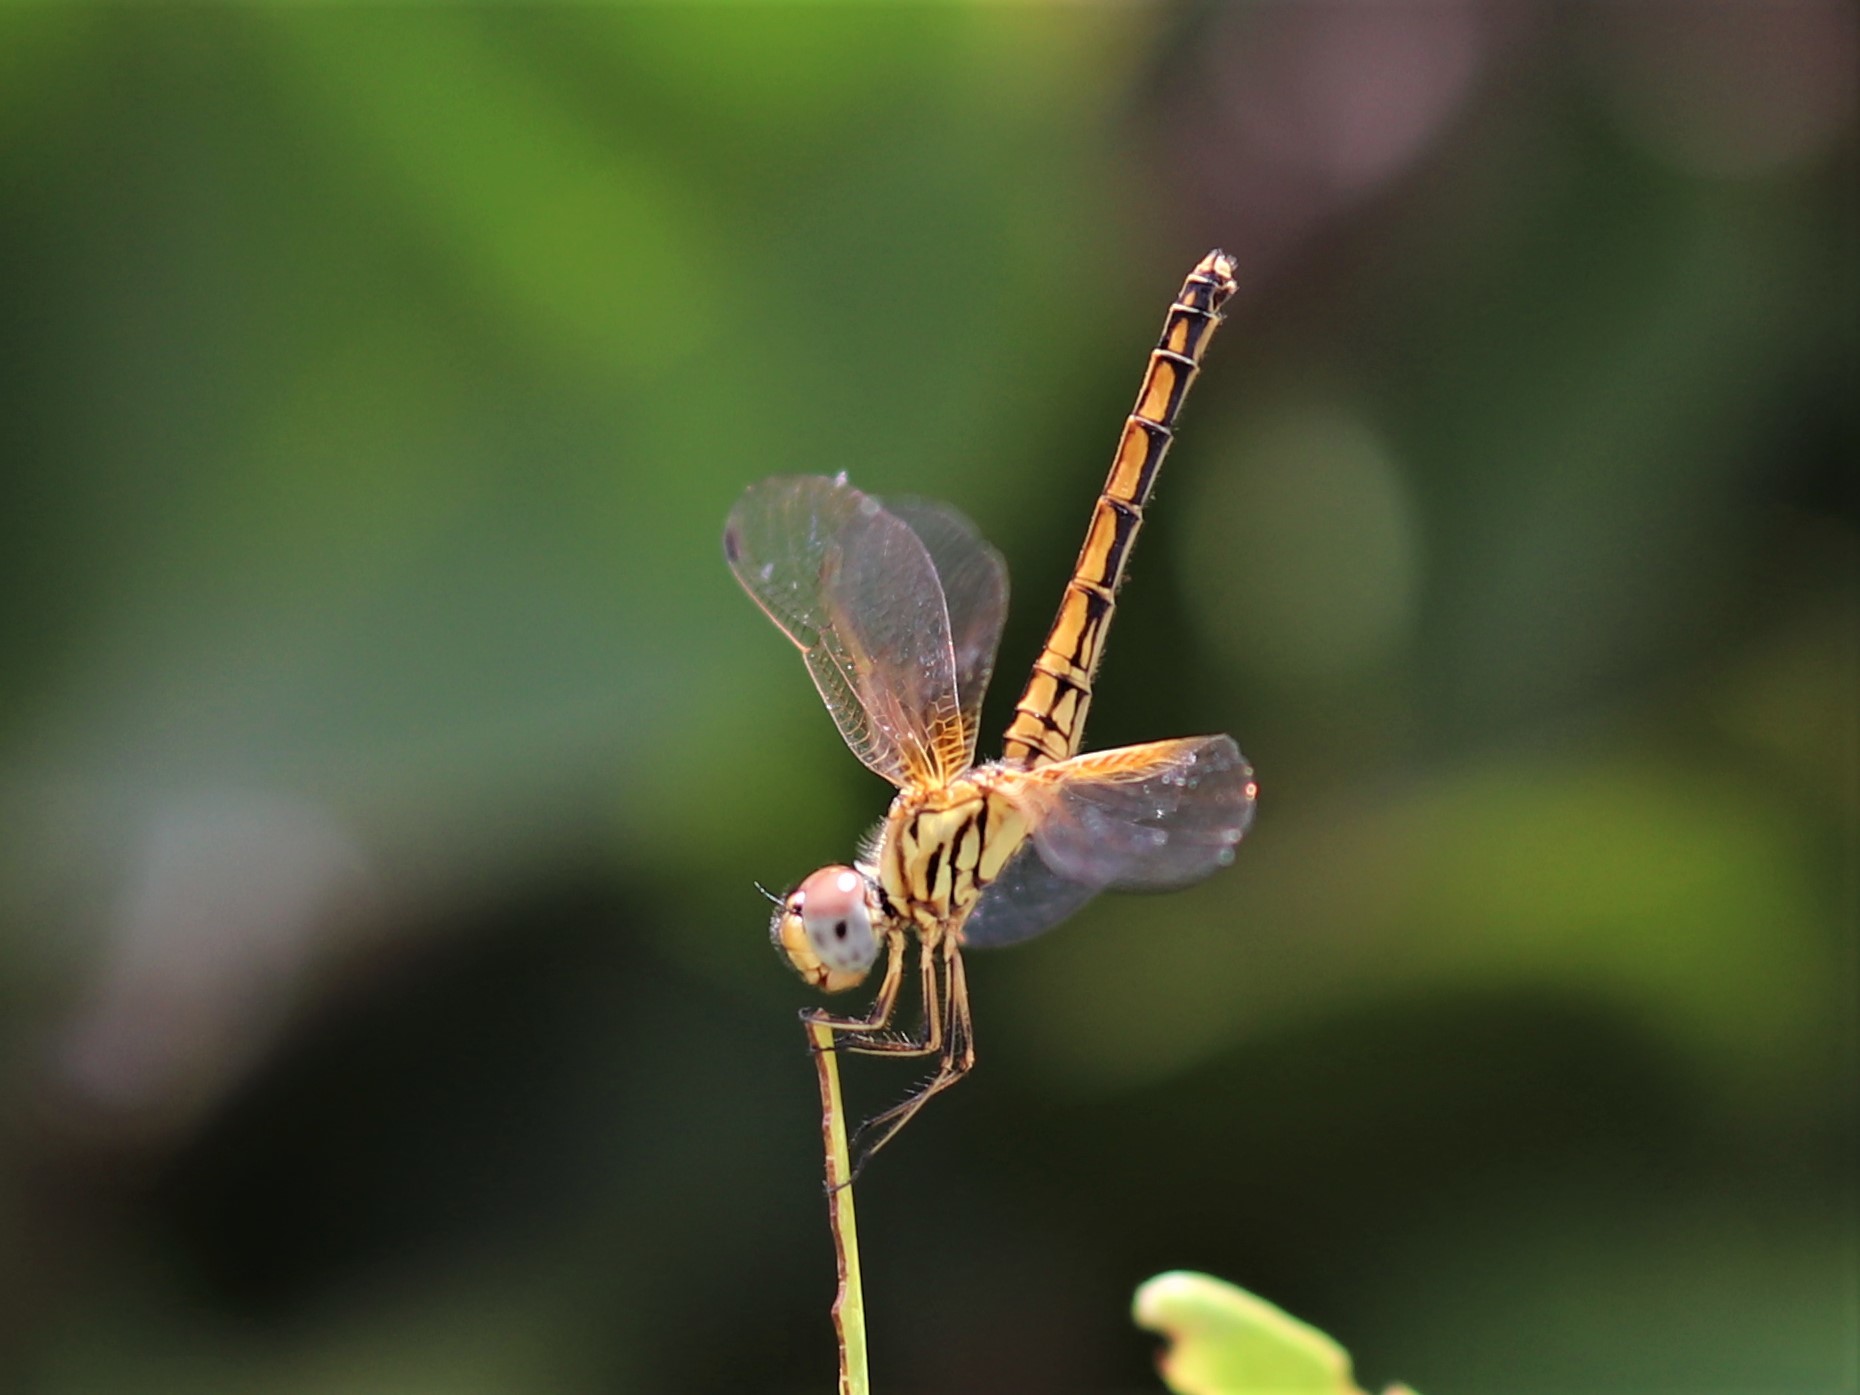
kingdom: Animalia
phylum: Arthropoda
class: Insecta
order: Odonata
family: Libellulidae
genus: Trithemis
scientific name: Trithemis aurora
